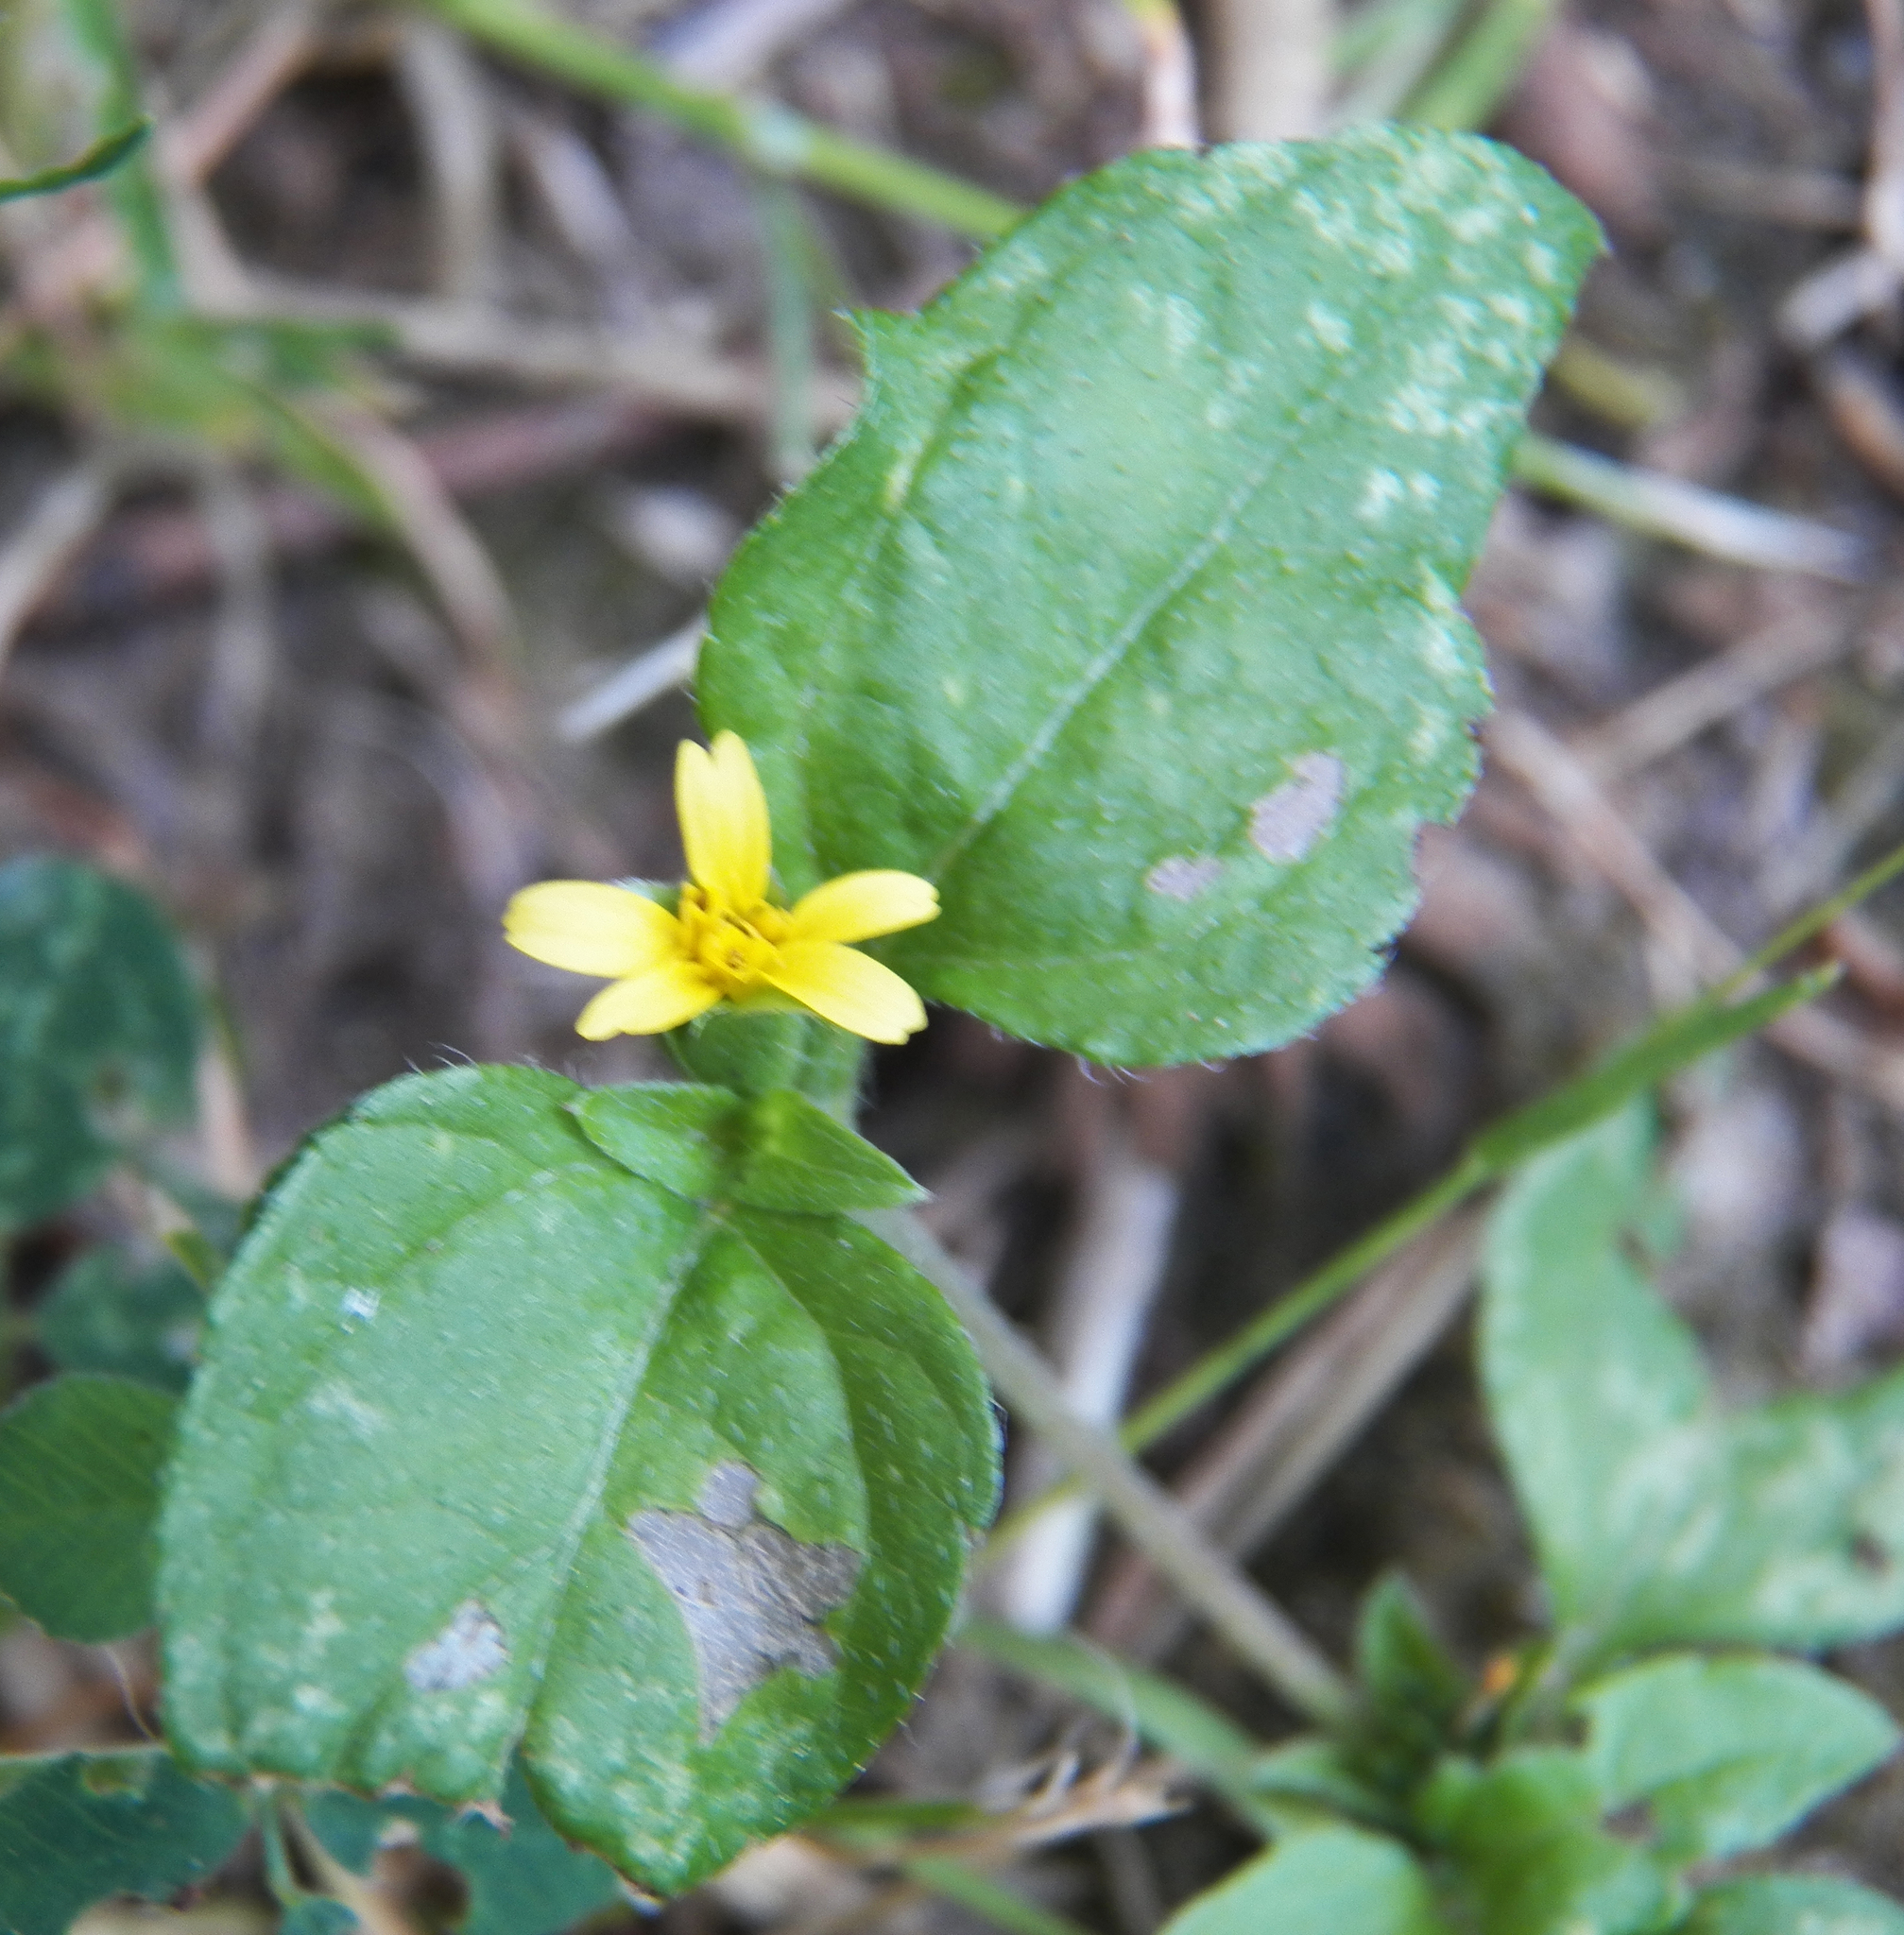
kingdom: Plantae
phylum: Tracheophyta
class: Magnoliopsida
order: Asterales
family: Asteraceae
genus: Calyptocarpus
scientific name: Calyptocarpus vialis
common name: Straggler daisy
